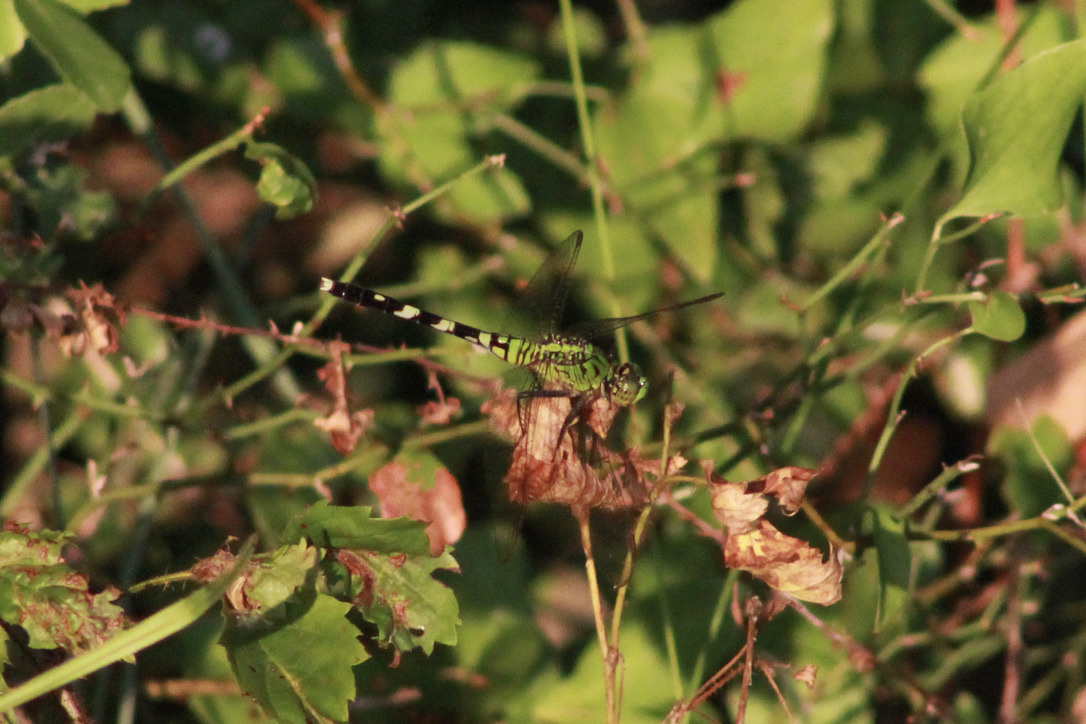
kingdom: Animalia
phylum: Arthropoda
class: Insecta
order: Odonata
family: Libellulidae
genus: Erythemis
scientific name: Erythemis simplicicollis
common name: Eastern pondhawk
